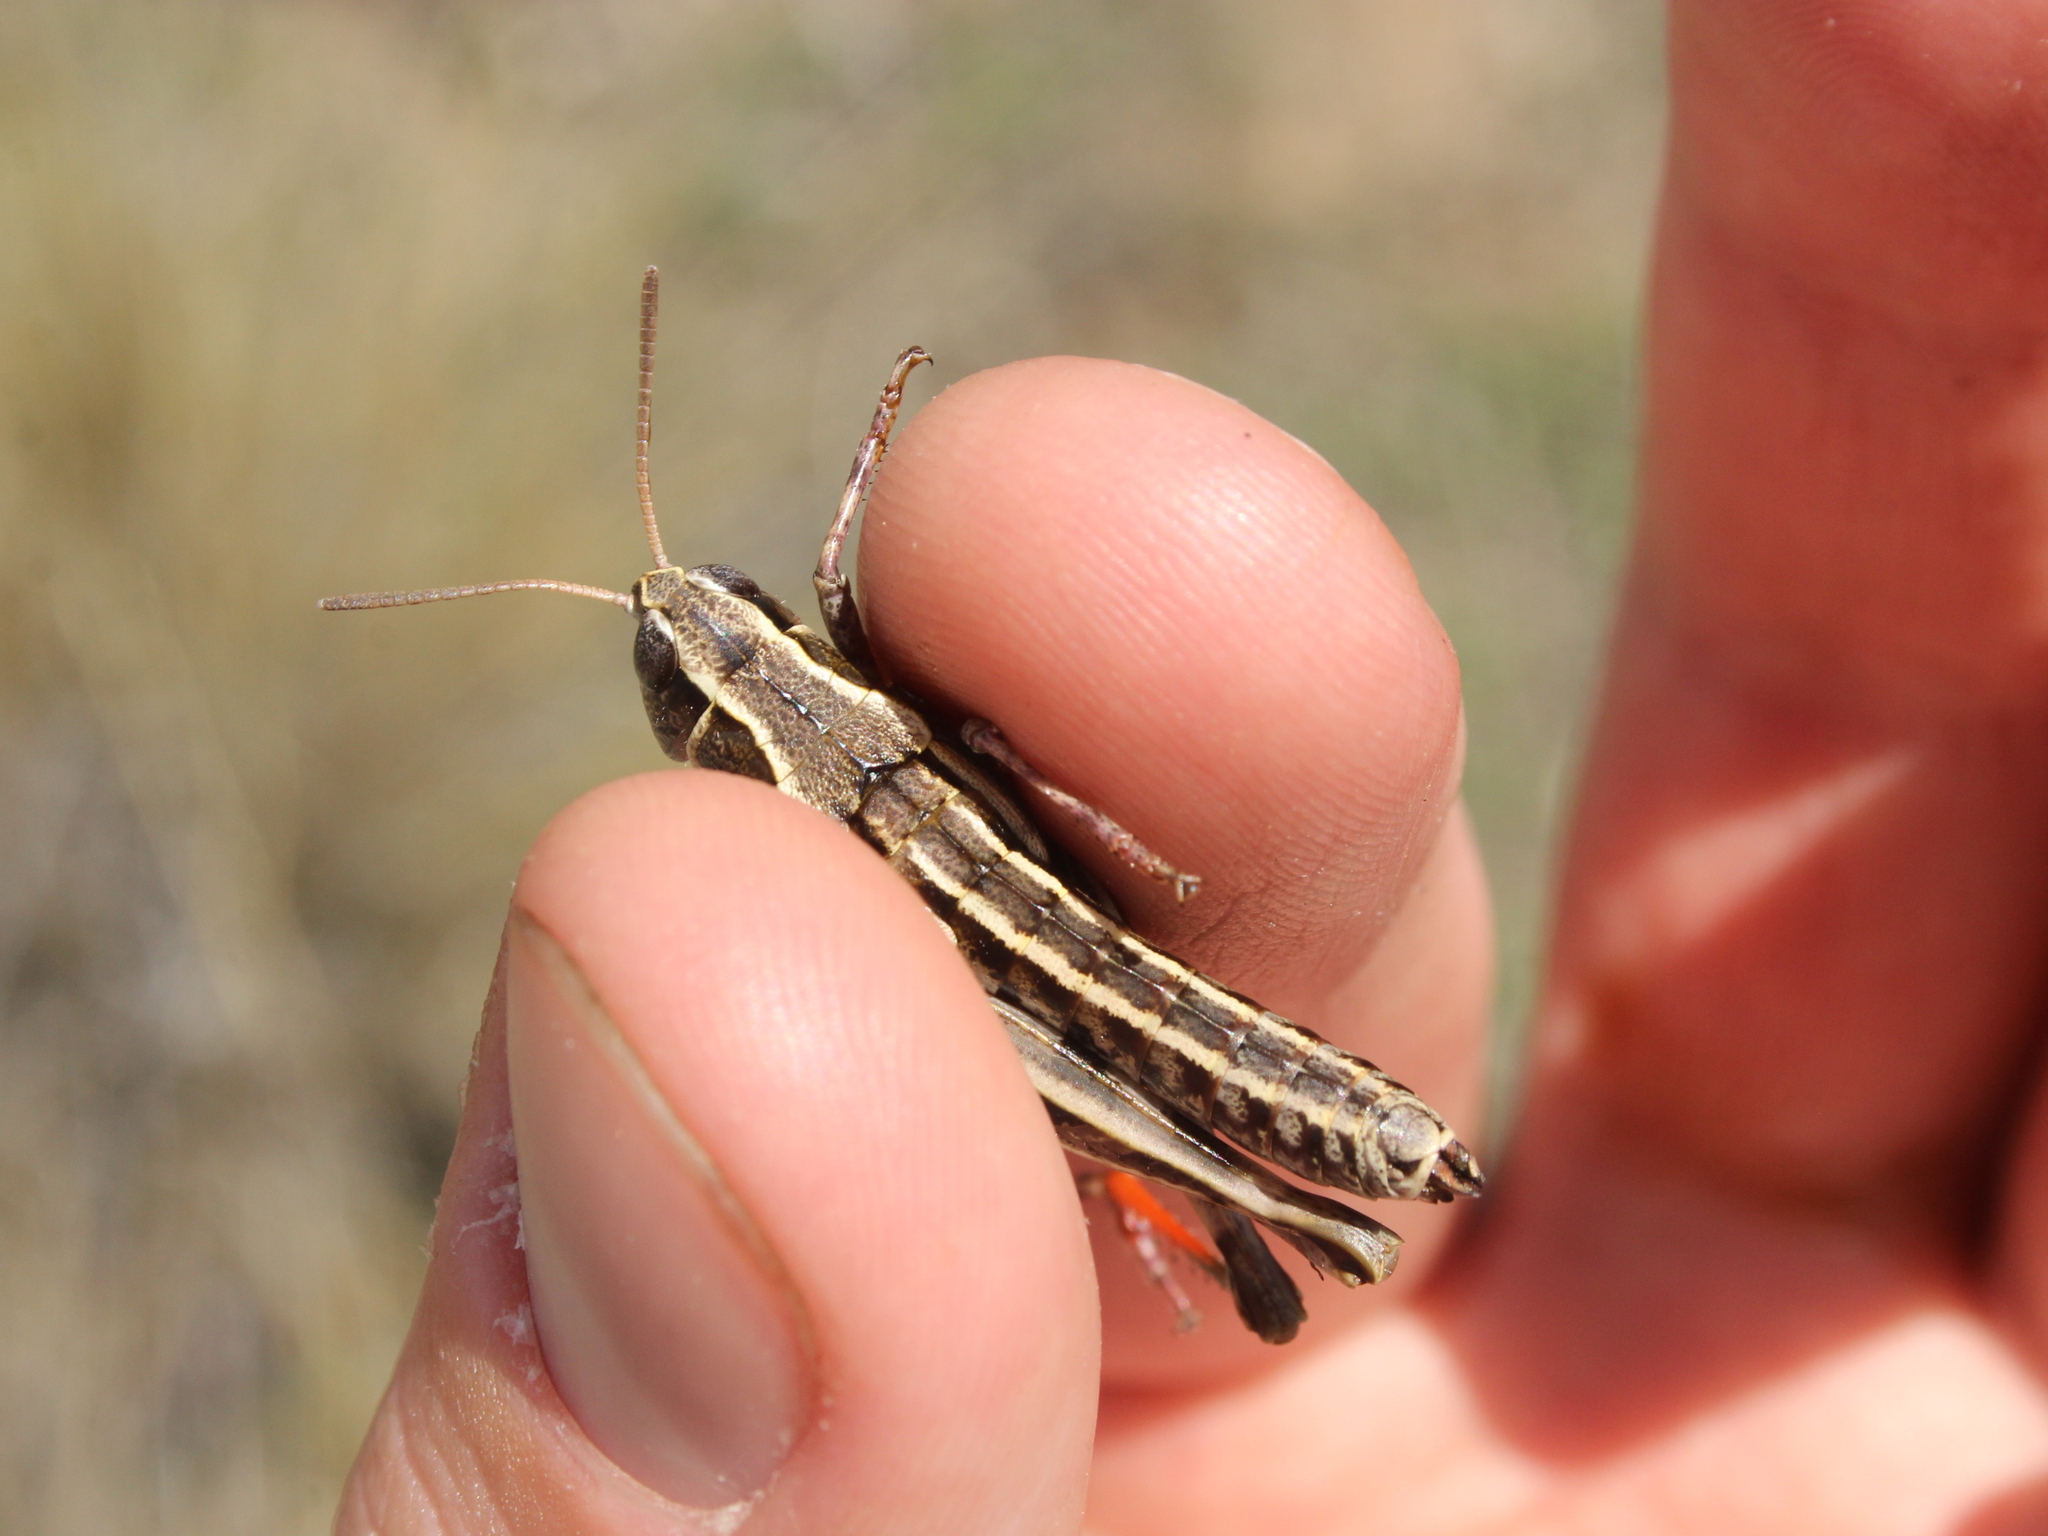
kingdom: Animalia
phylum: Arthropoda
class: Insecta
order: Orthoptera
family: Acrididae
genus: Sigaus
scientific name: Sigaus australis
